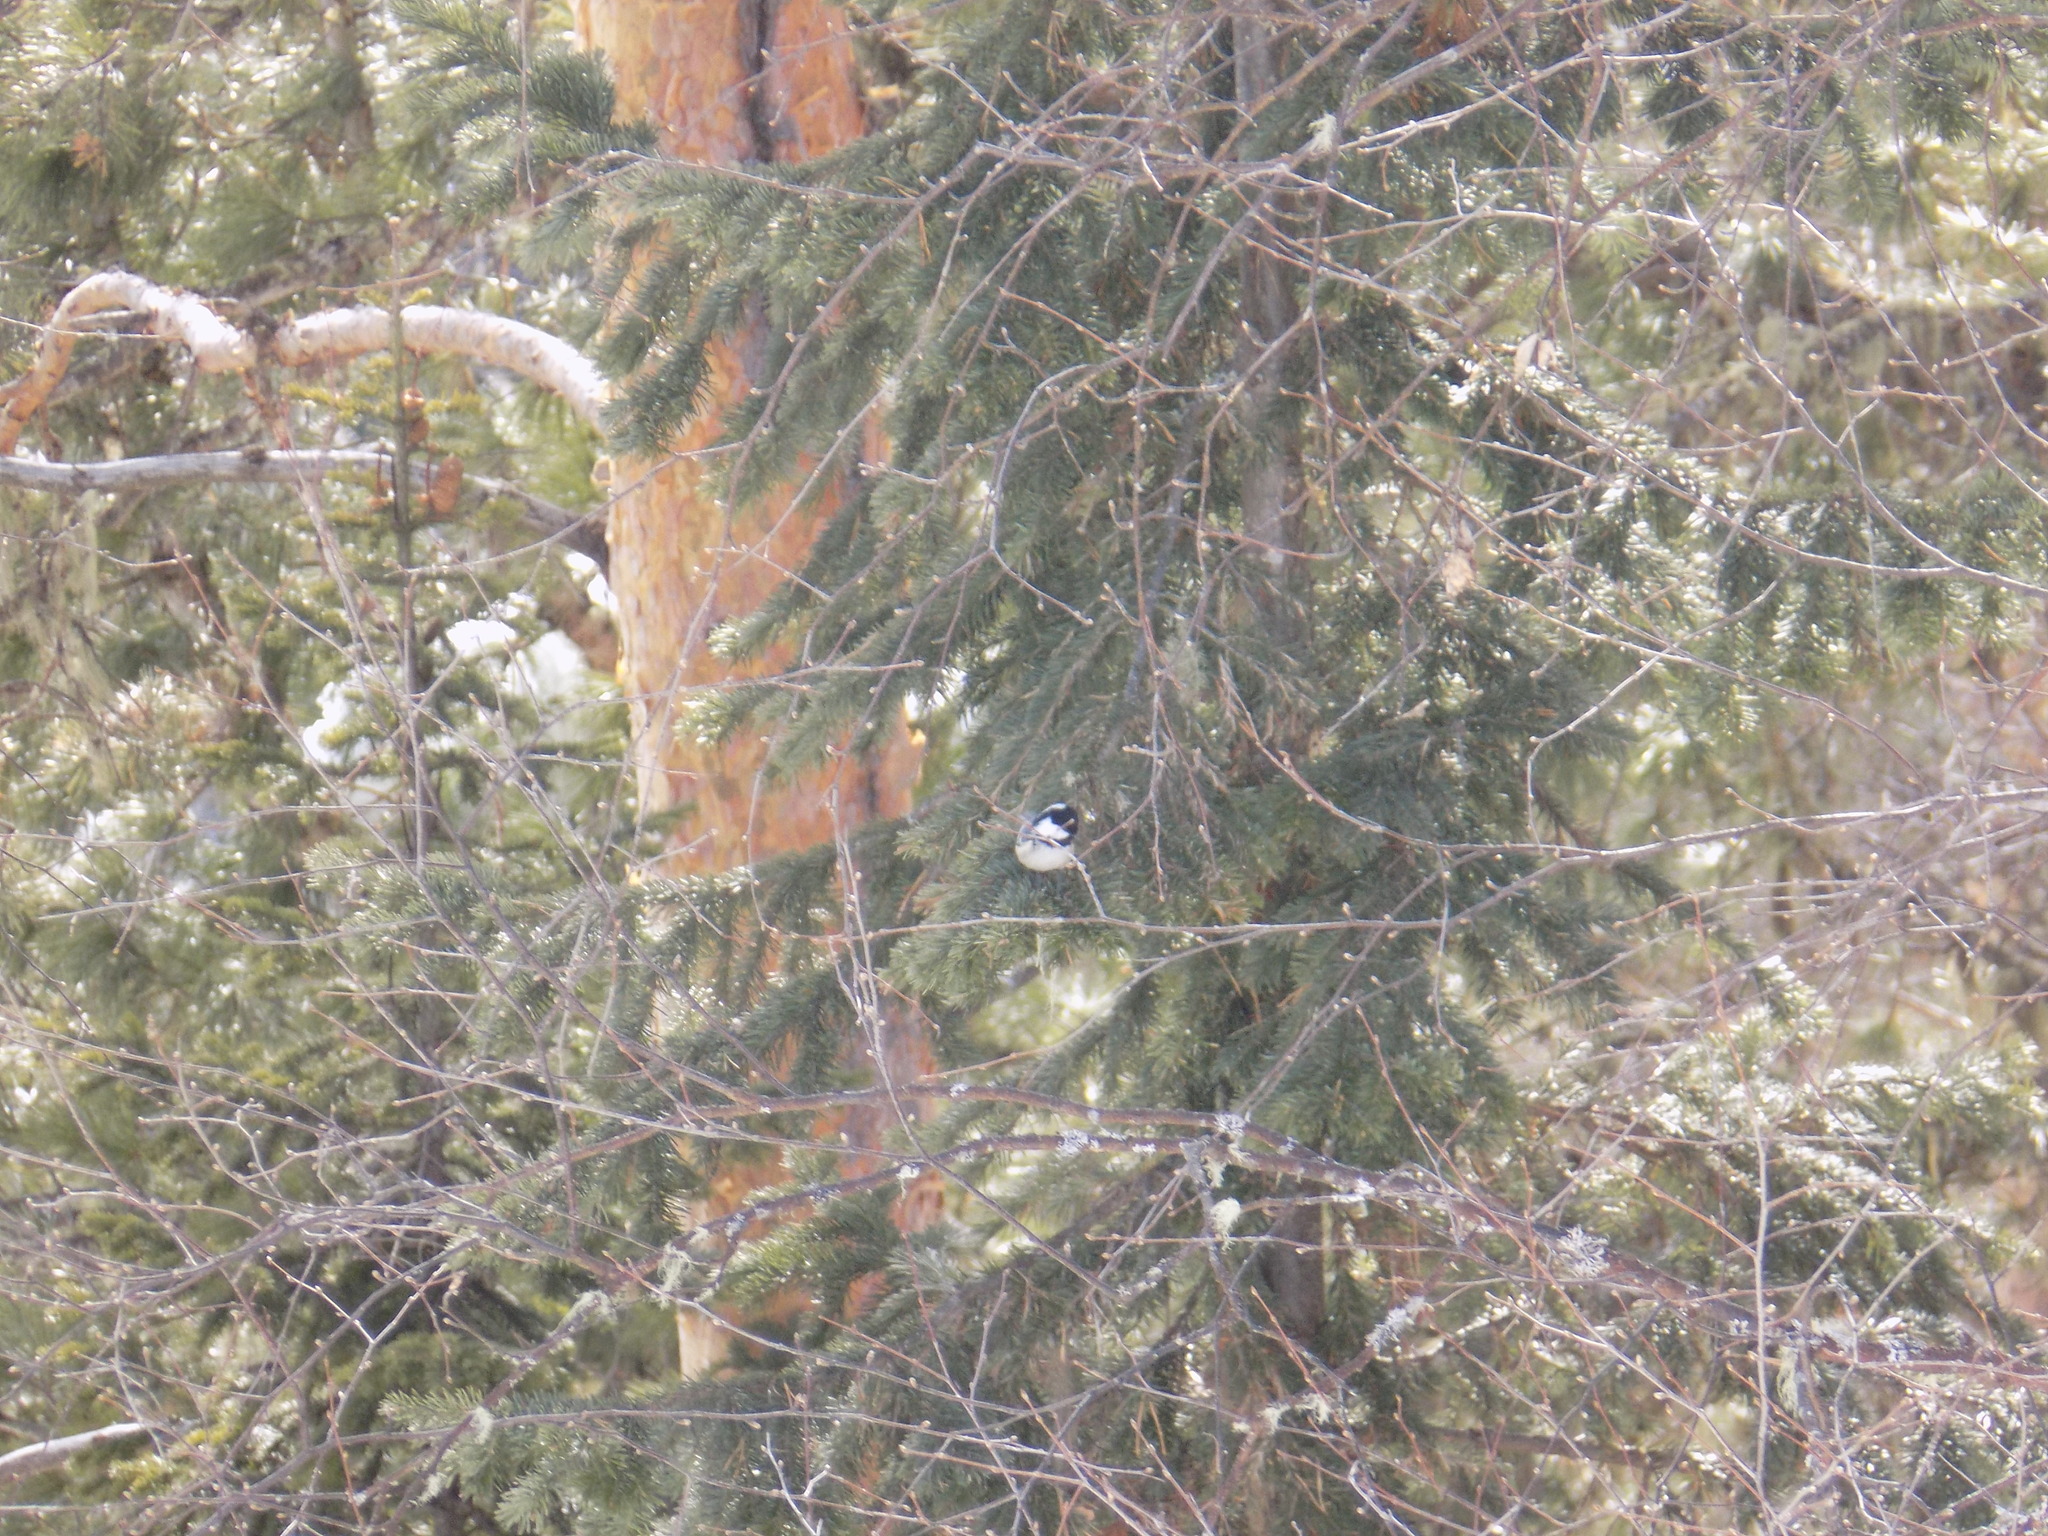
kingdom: Animalia
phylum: Chordata
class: Aves
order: Passeriformes
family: Paridae
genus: Periparus
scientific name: Periparus ater
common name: Coal tit
